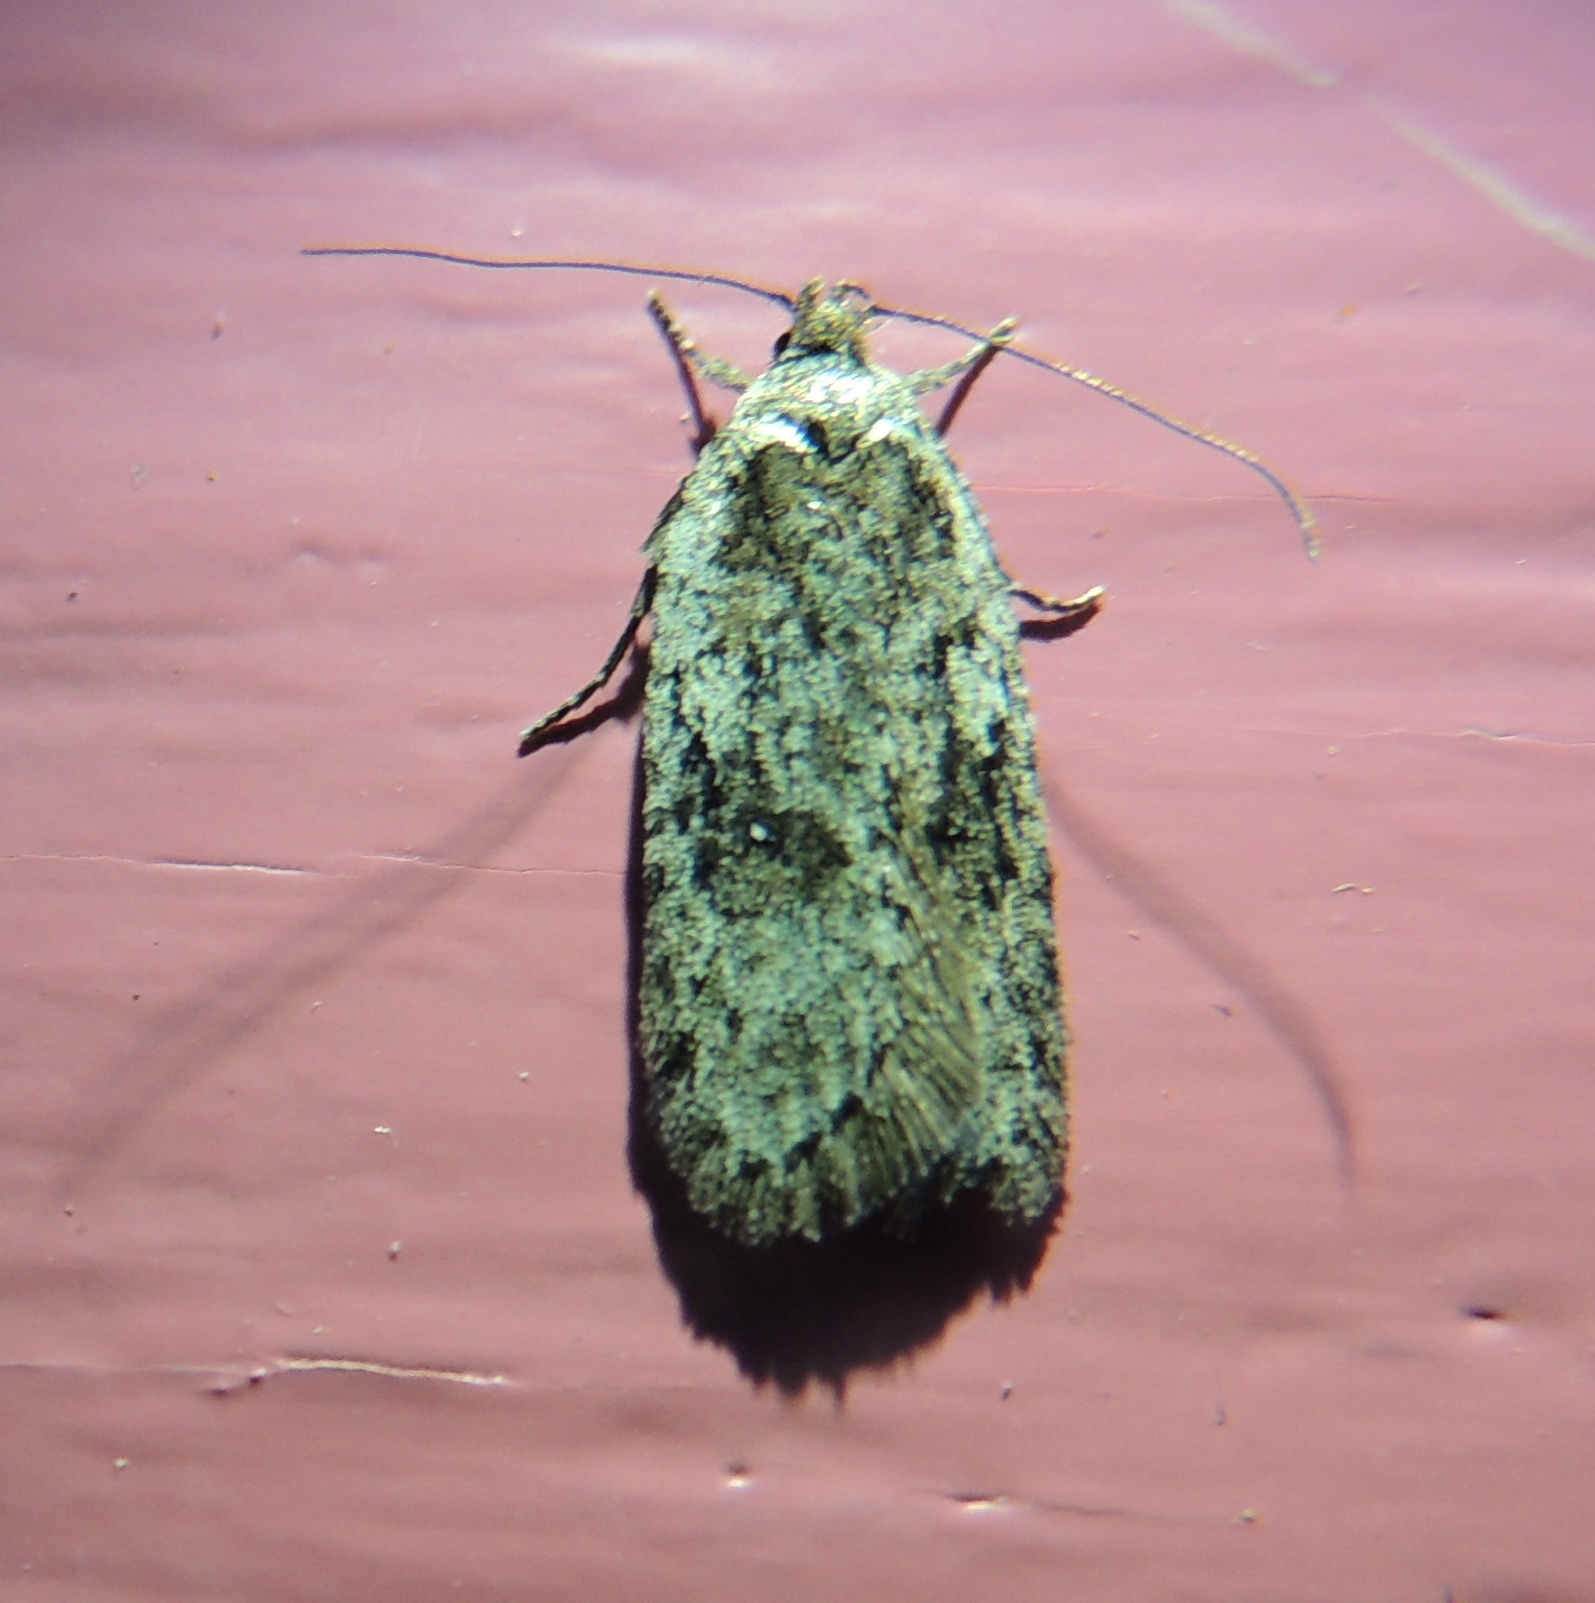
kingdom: Animalia
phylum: Arthropoda
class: Insecta
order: Lepidoptera
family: Depressariidae
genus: Exaeretia
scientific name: Exaeretia ciniflonella
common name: Scotch flat-body
